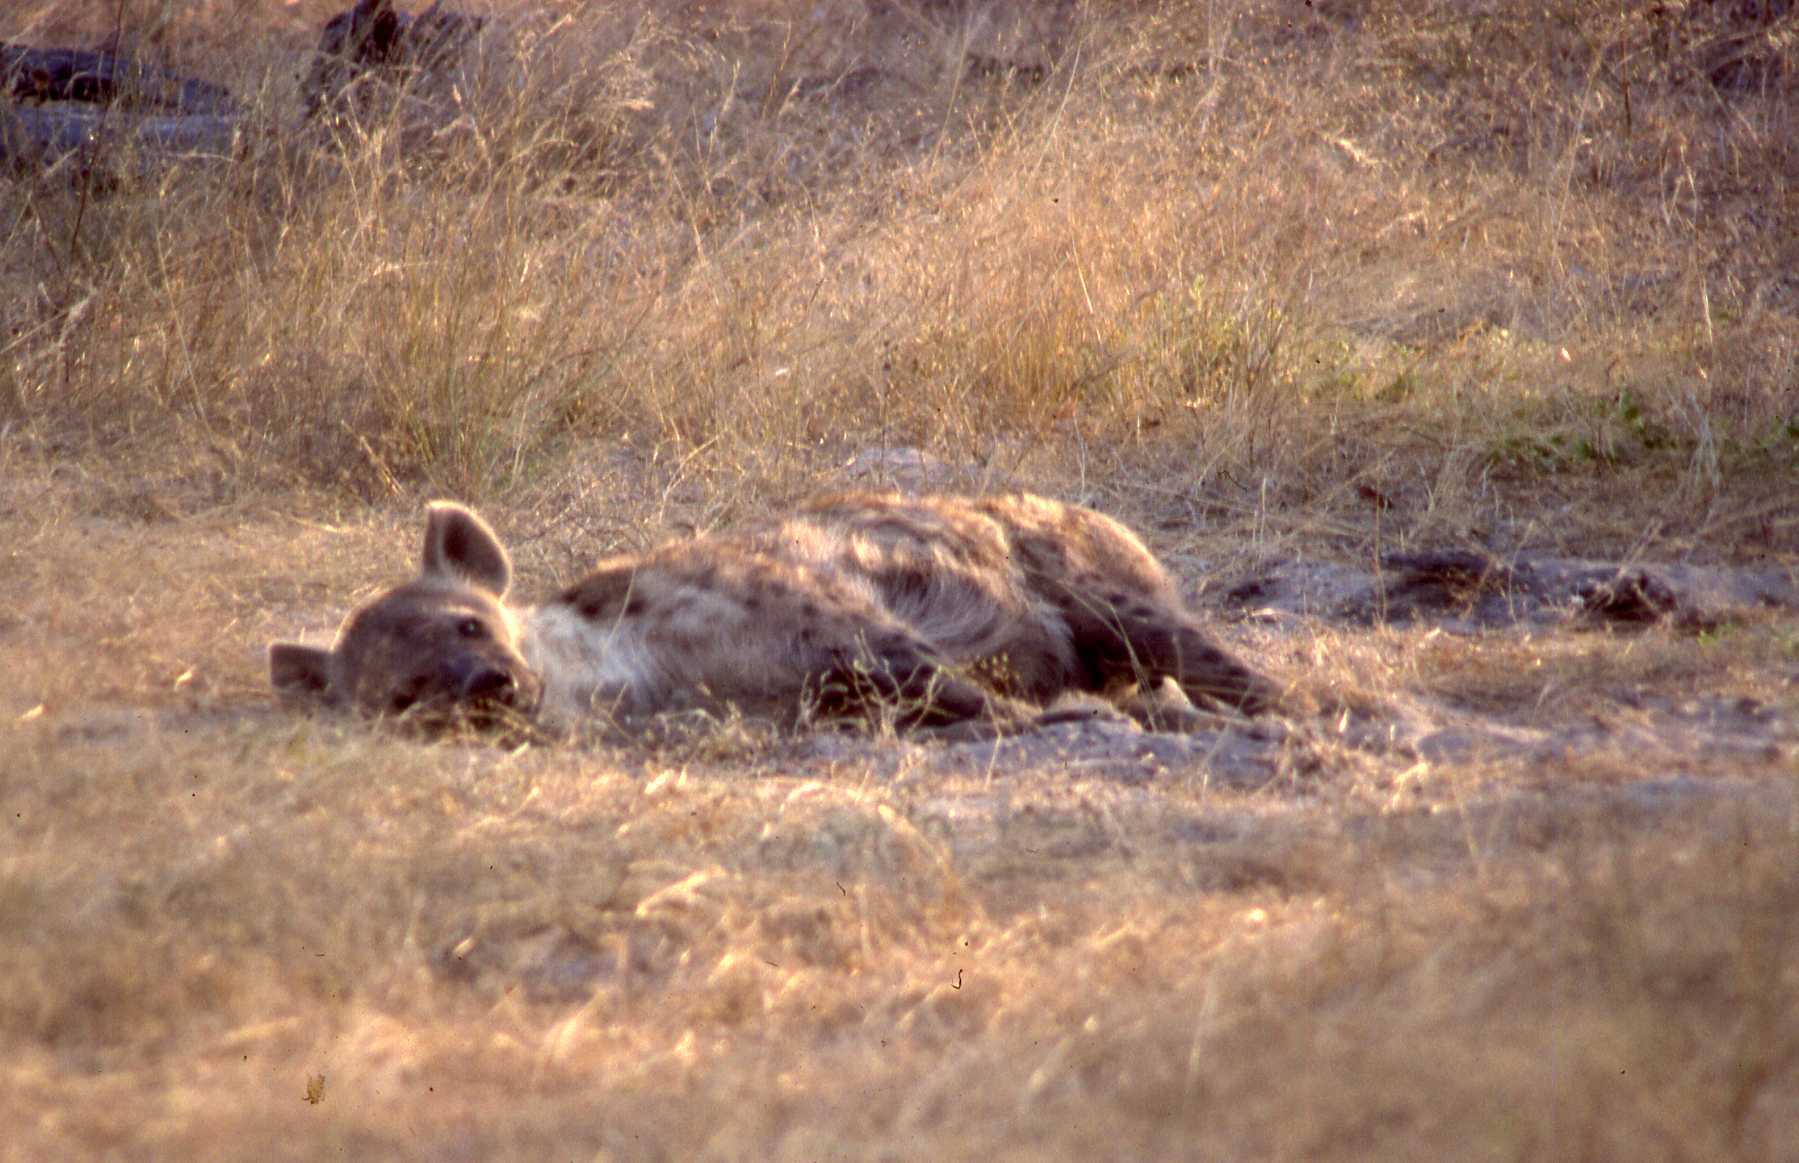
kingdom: Animalia
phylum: Chordata
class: Mammalia
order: Carnivora
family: Hyaenidae
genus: Crocuta
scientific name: Crocuta crocuta
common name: Spotted hyaena
